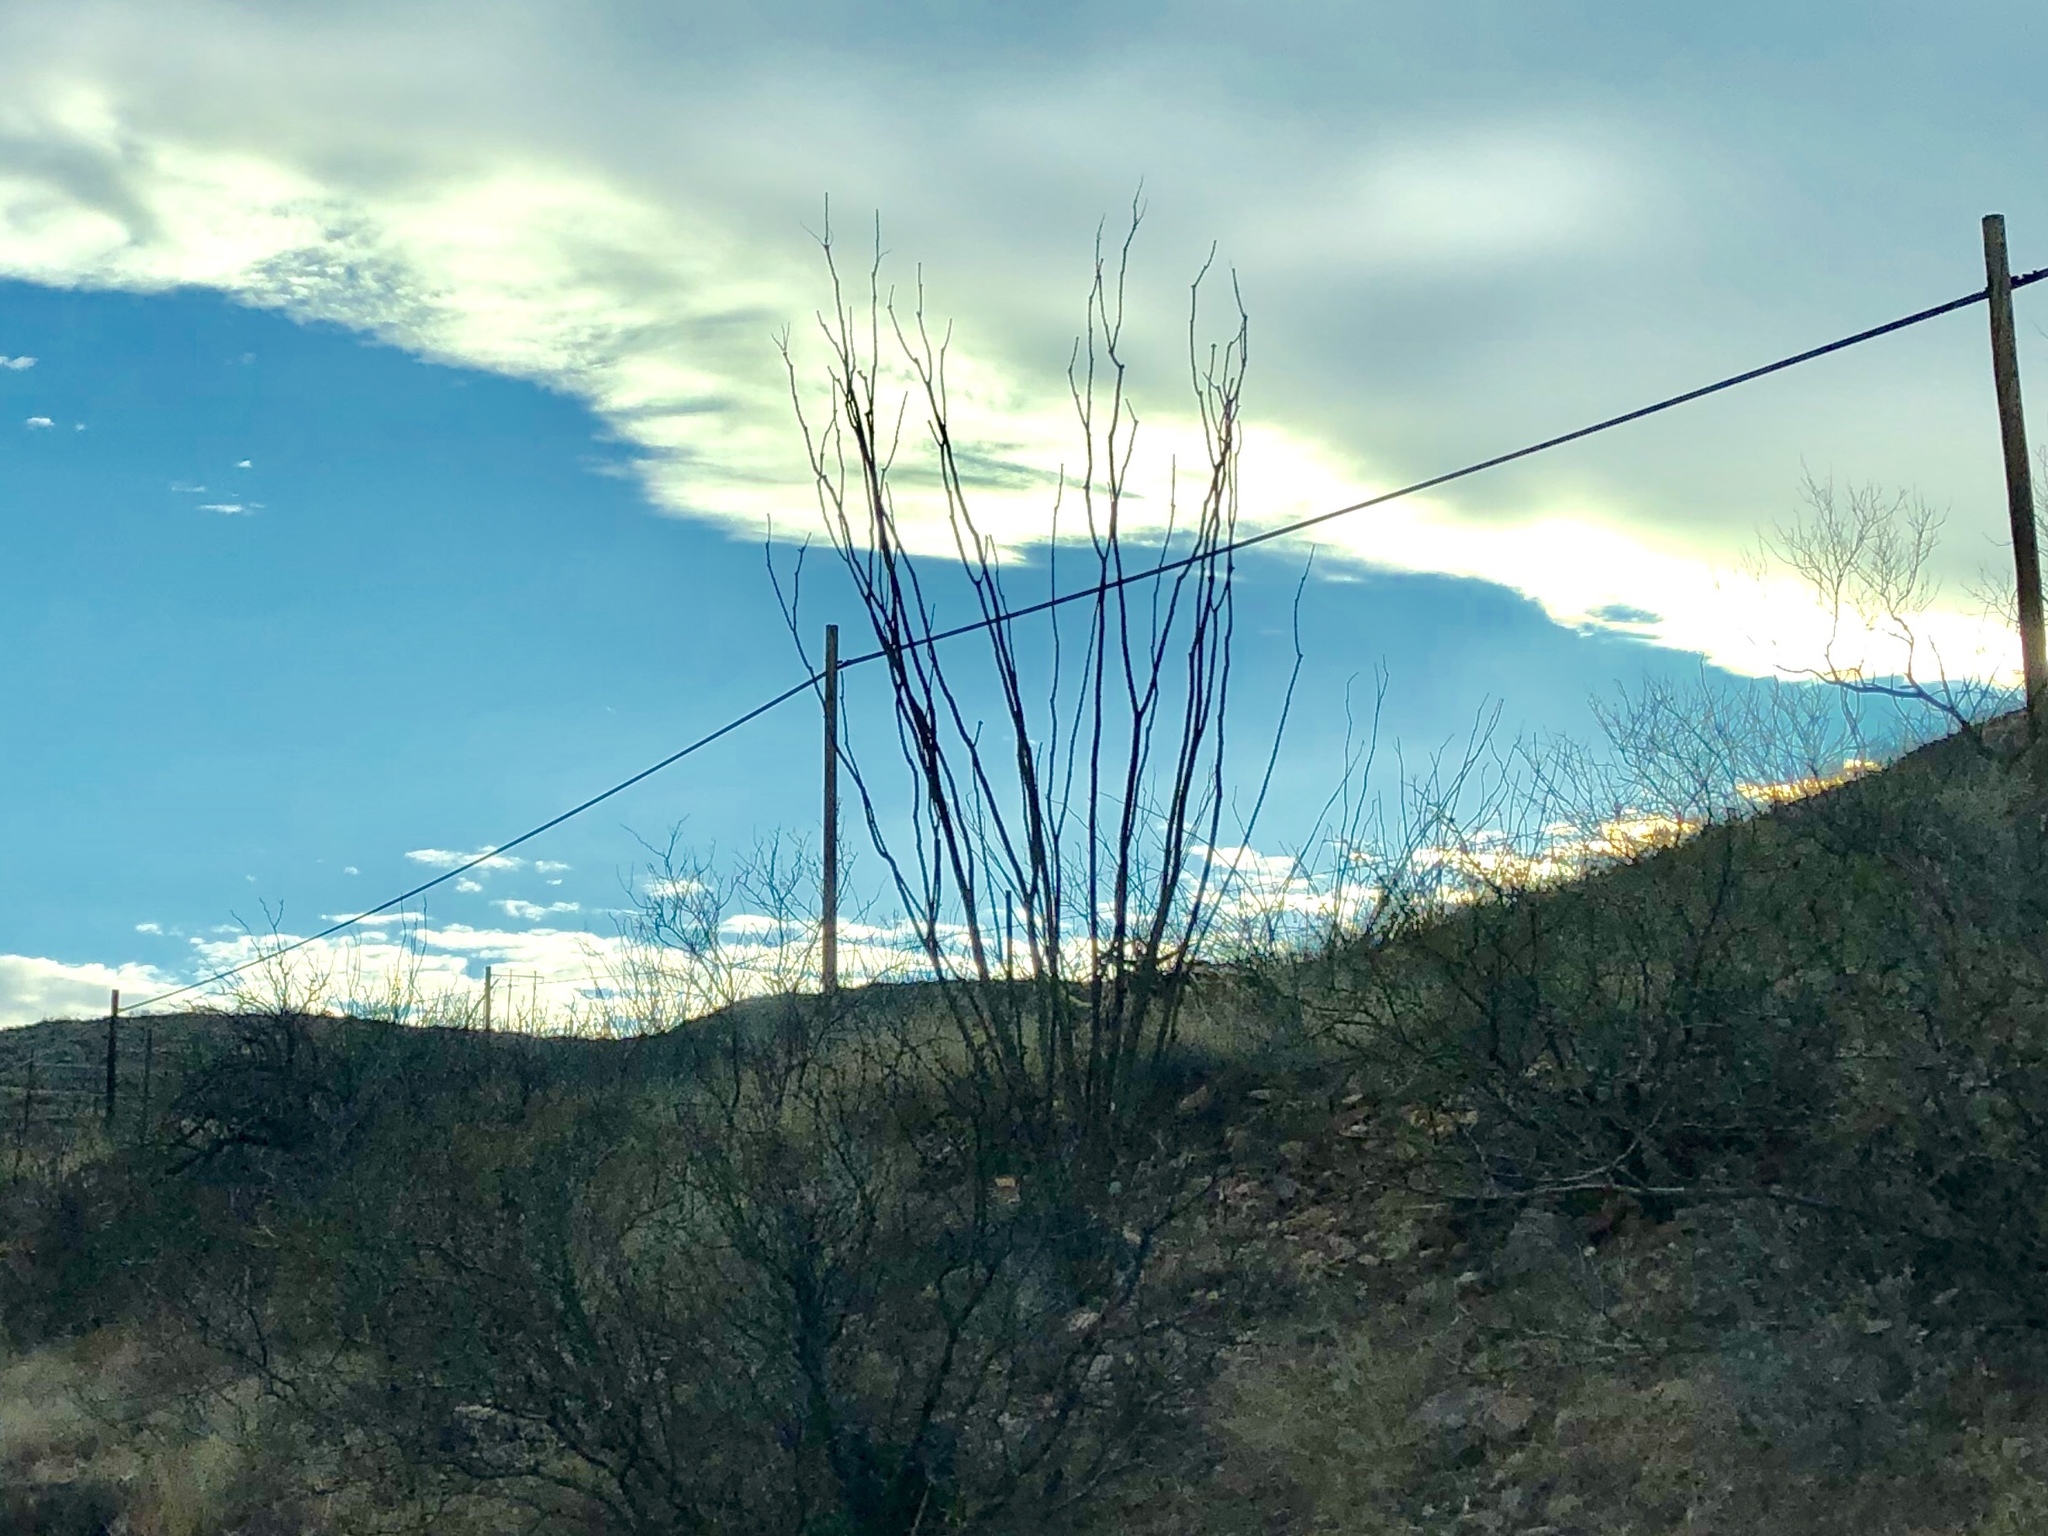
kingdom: Plantae
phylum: Tracheophyta
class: Magnoliopsida
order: Ericales
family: Fouquieriaceae
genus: Fouquieria
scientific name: Fouquieria splendens
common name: Vine-cactus
